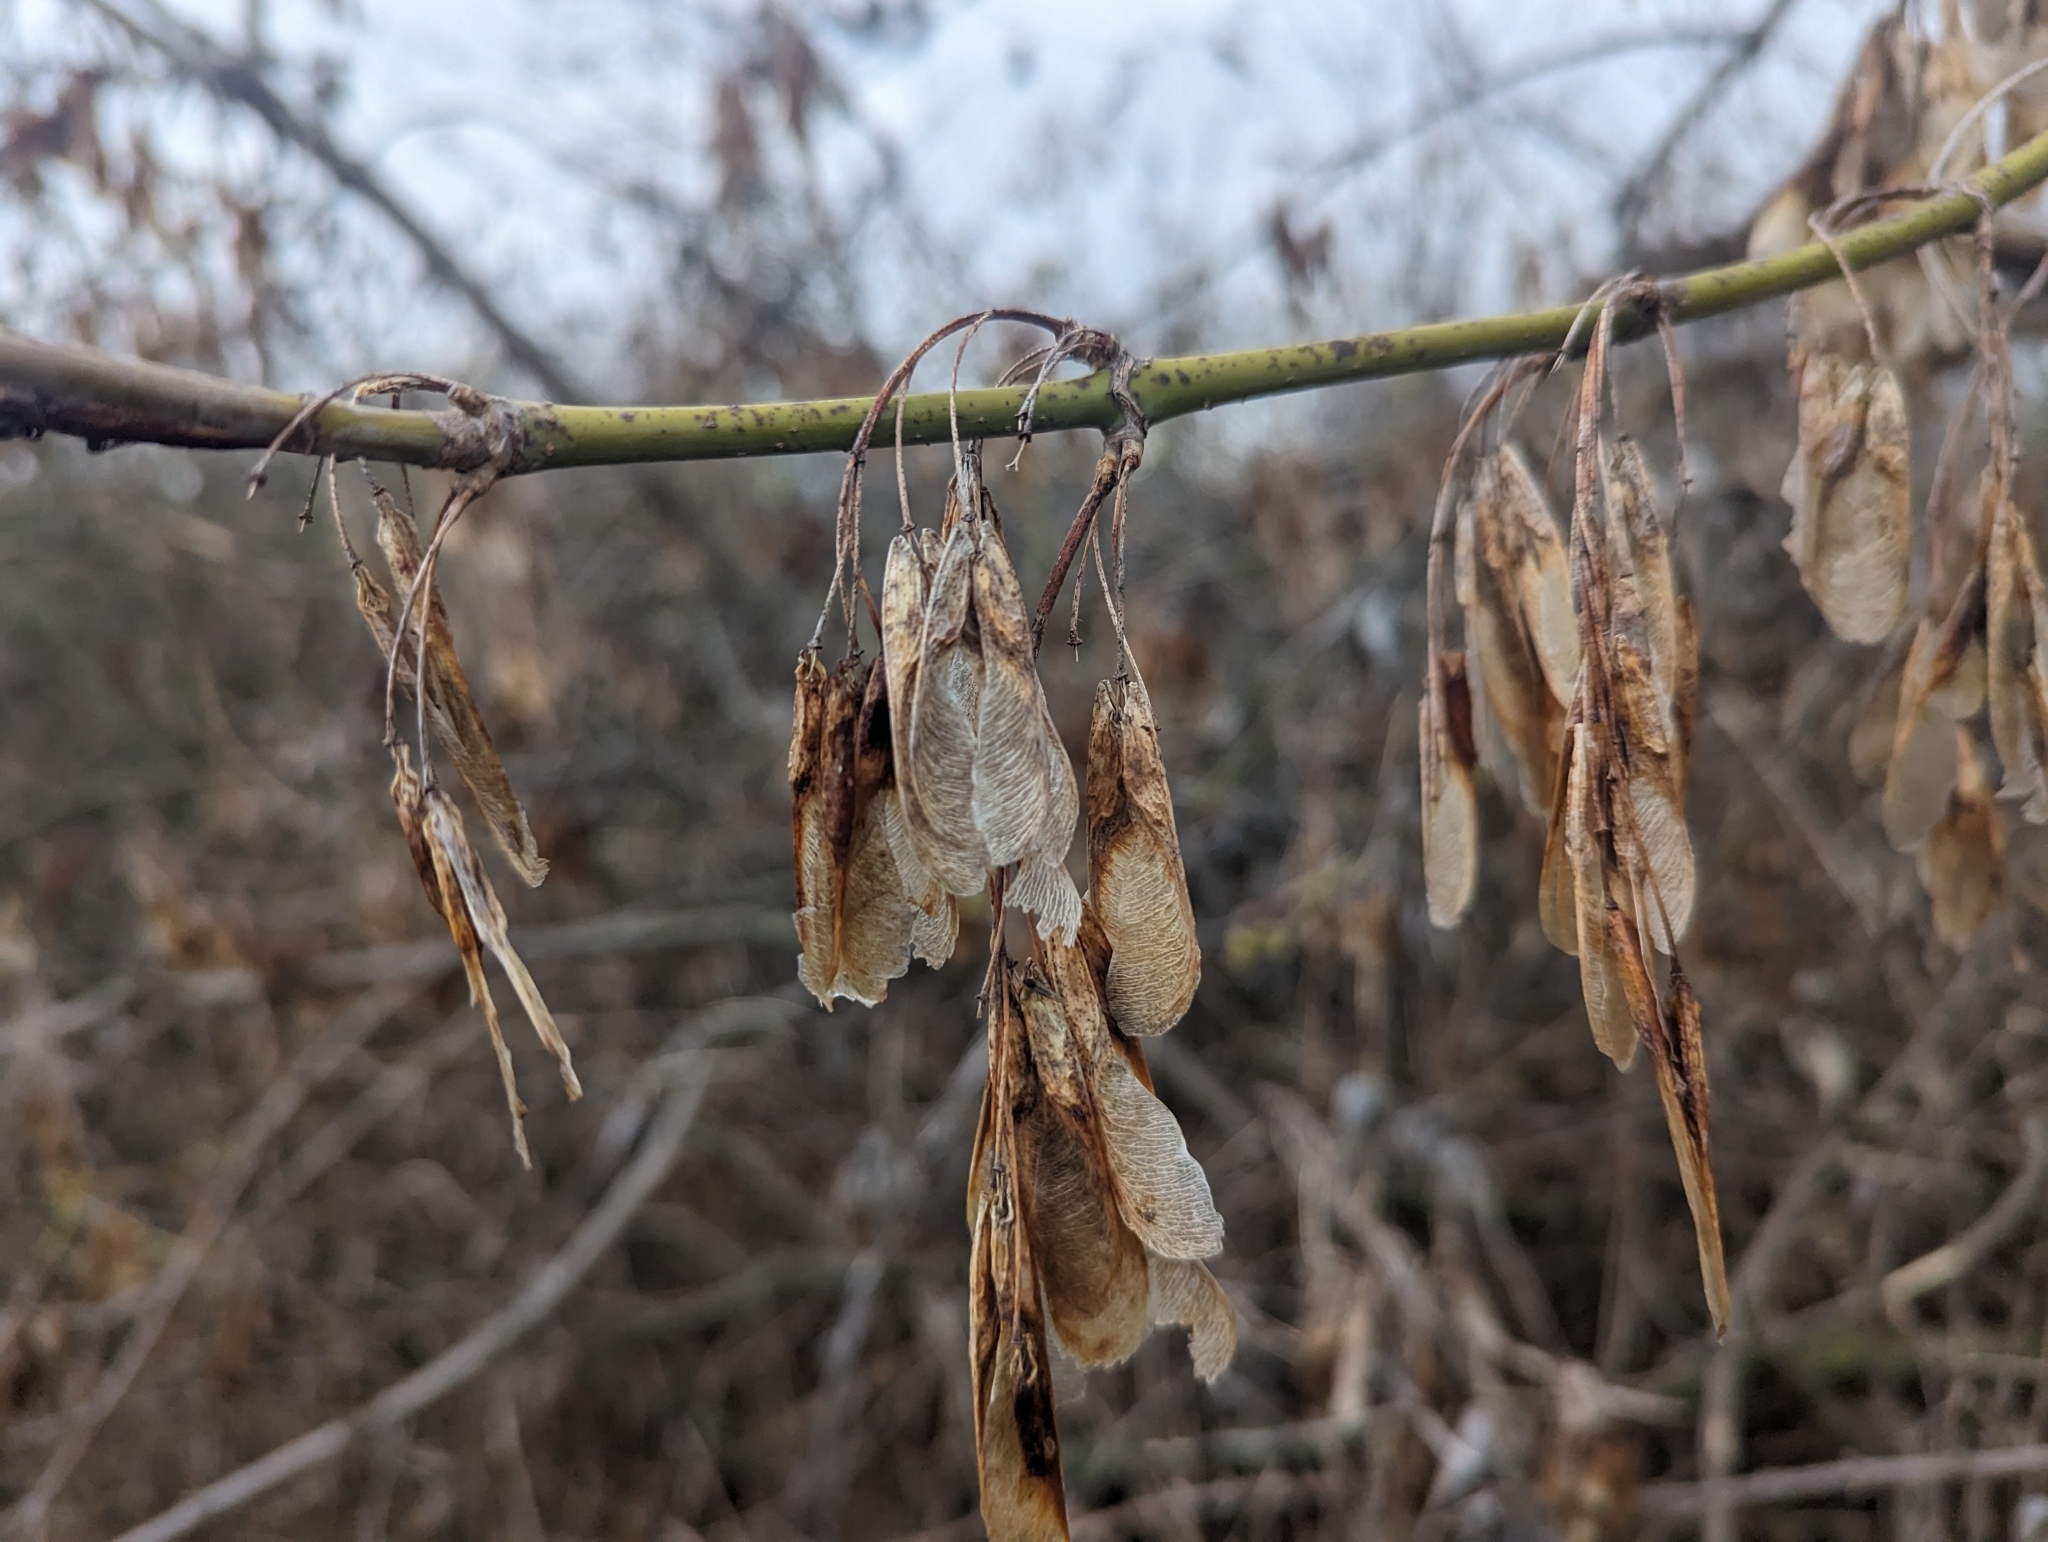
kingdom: Plantae
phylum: Tracheophyta
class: Magnoliopsida
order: Sapindales
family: Sapindaceae
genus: Acer
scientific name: Acer negundo
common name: Ashleaf maple
